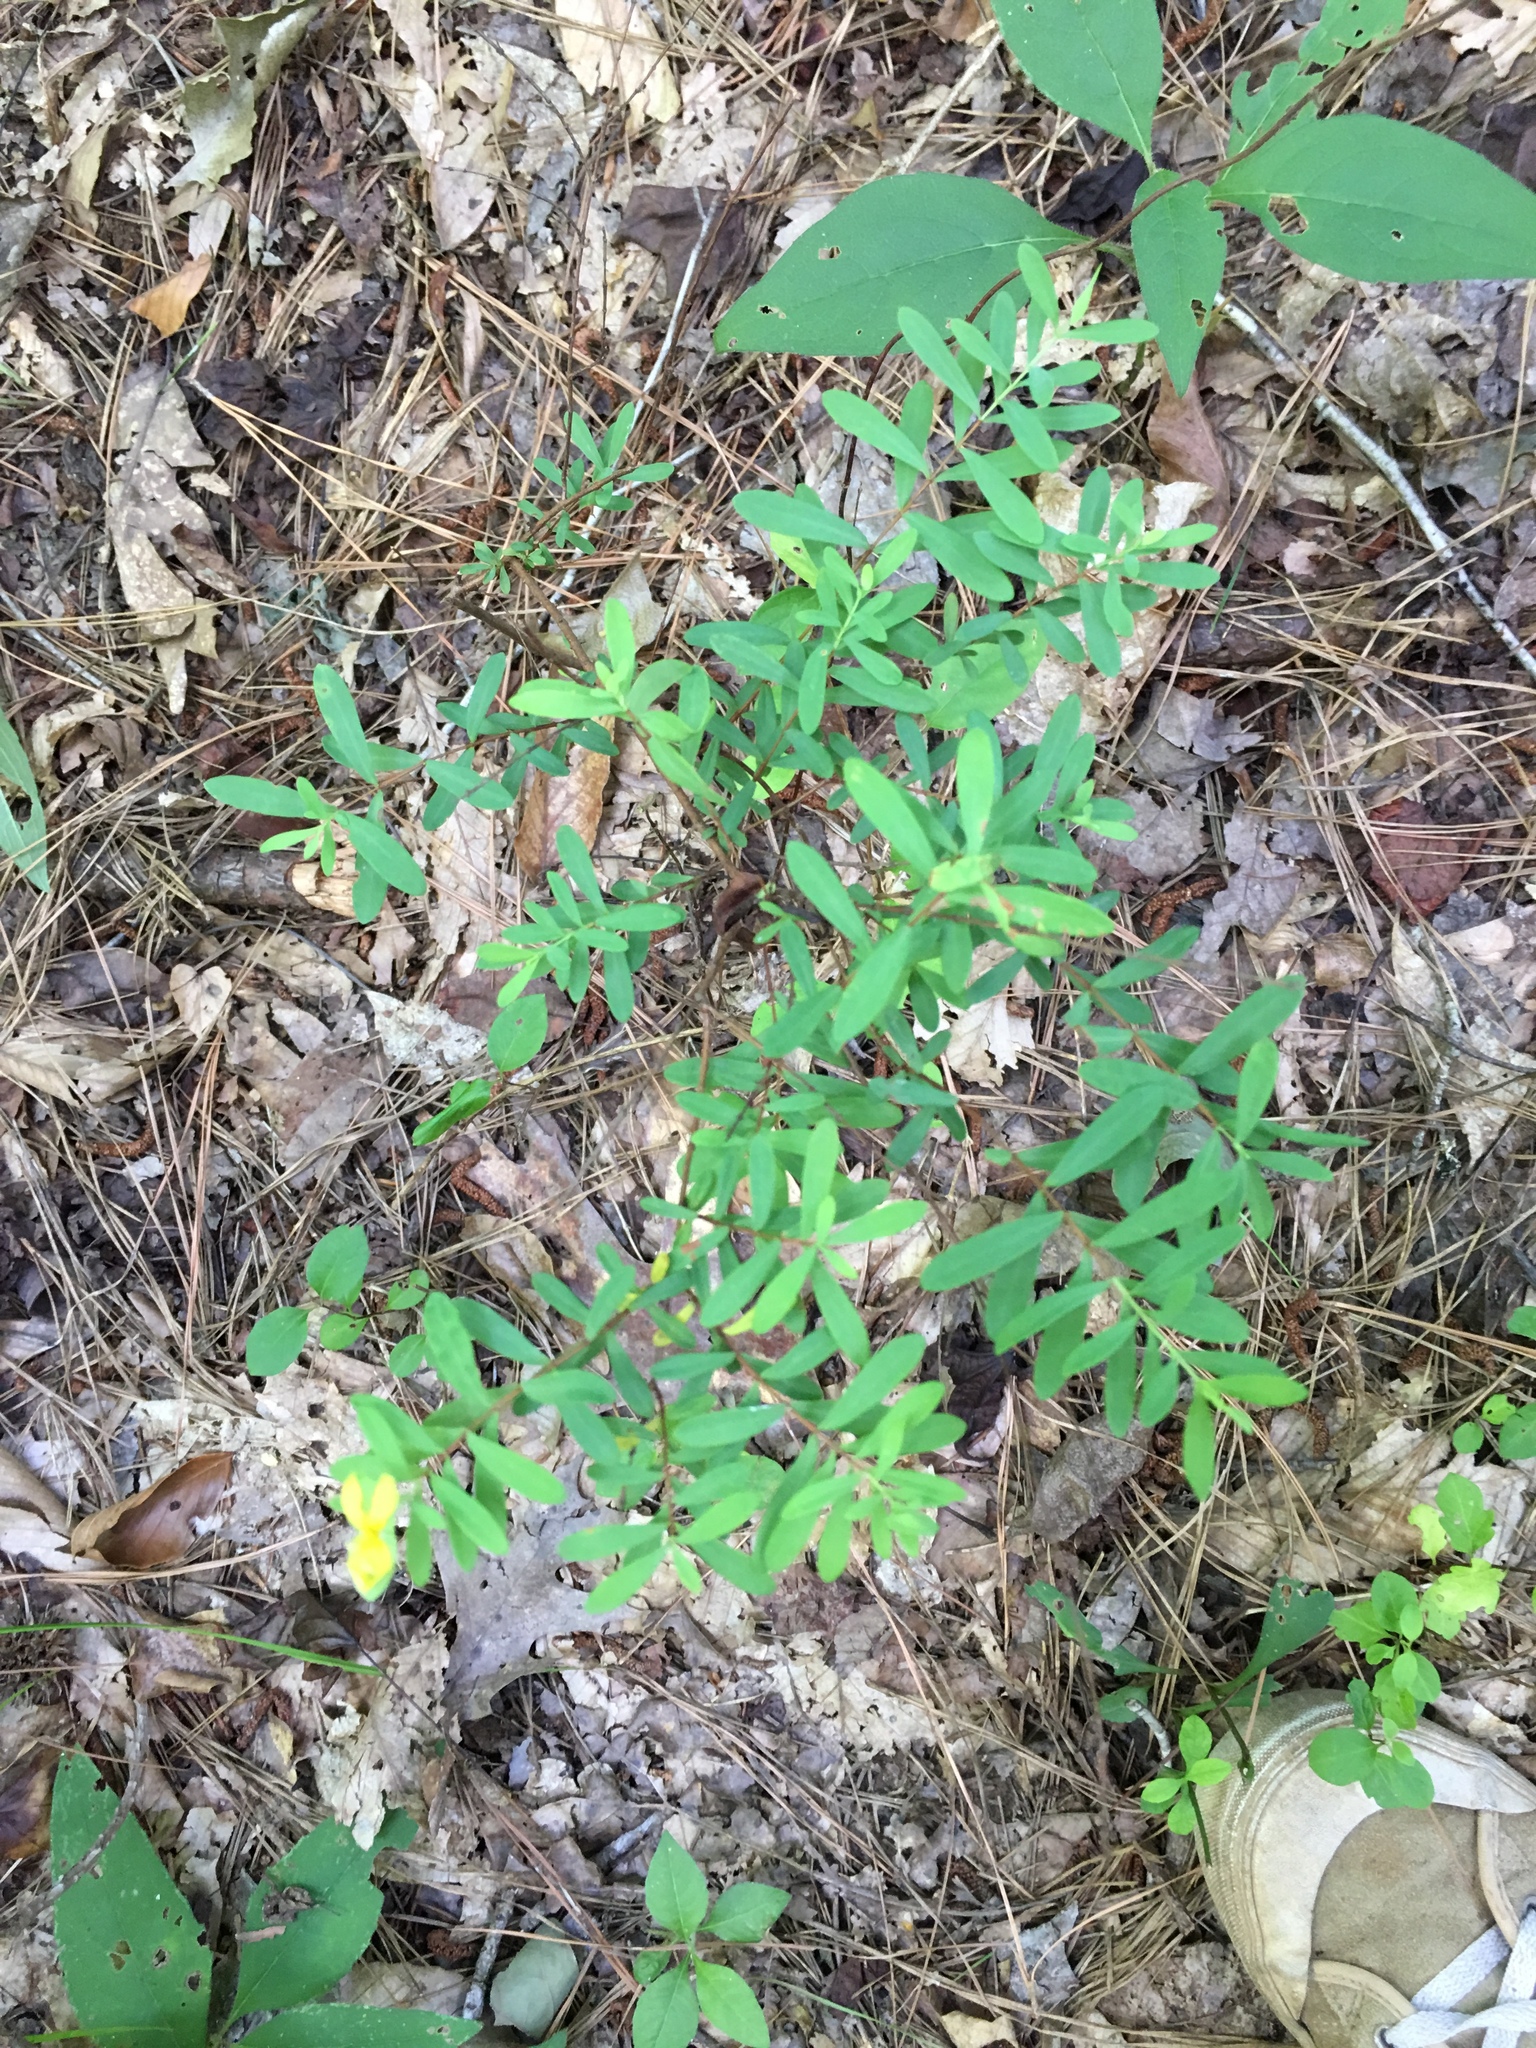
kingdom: Plantae
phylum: Tracheophyta
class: Magnoliopsida
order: Malpighiales
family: Hypericaceae
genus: Hypericum
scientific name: Hypericum hypericoides
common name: St. andrew's cross
